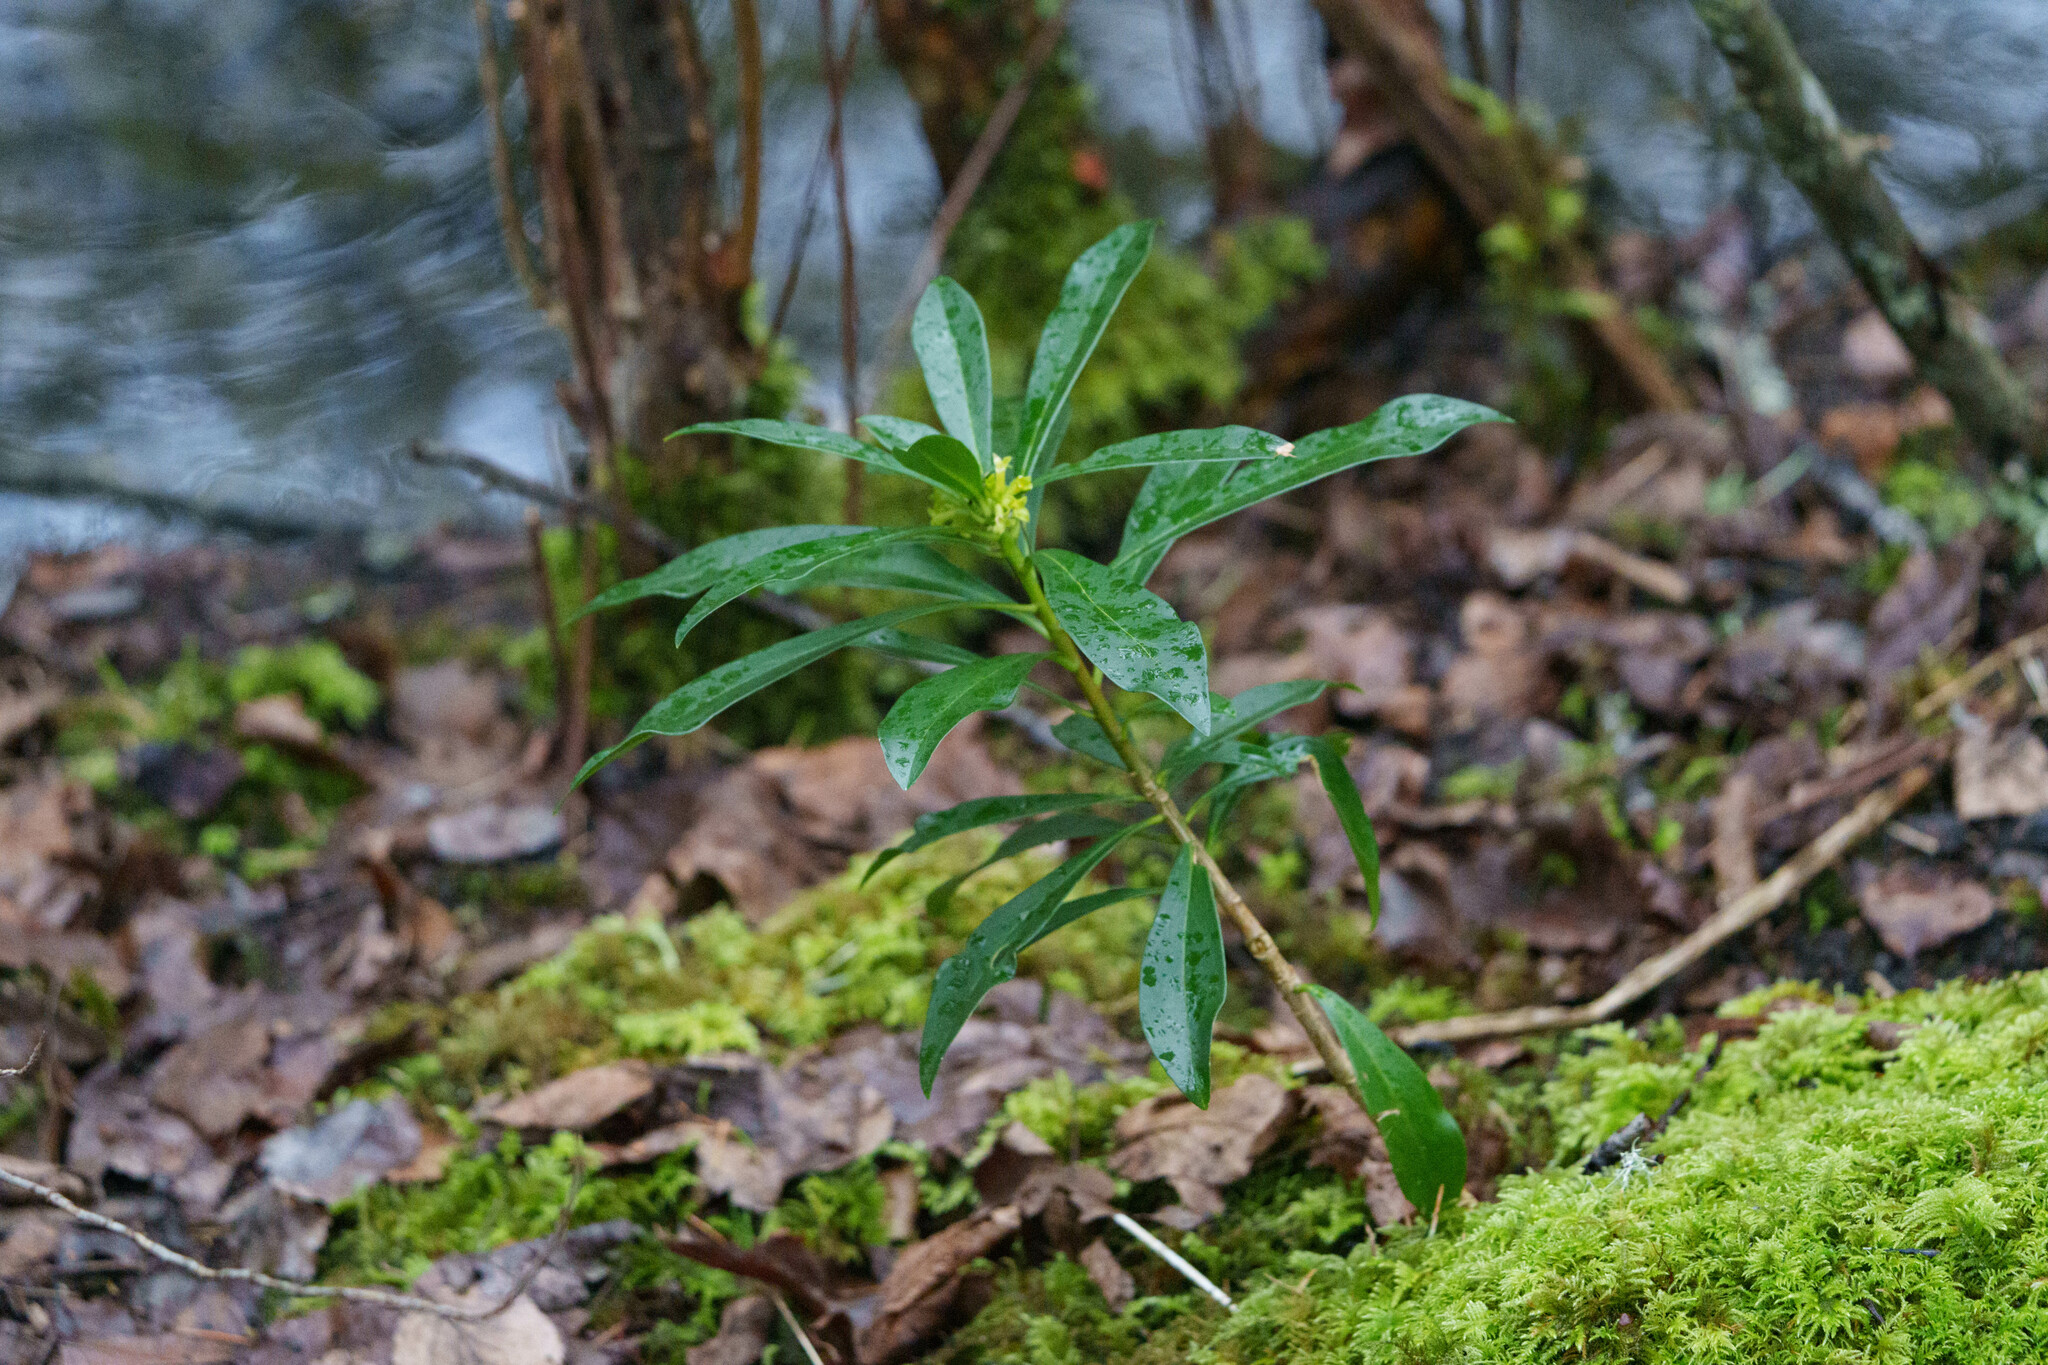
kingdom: Plantae
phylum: Tracheophyta
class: Magnoliopsida
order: Malvales
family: Thymelaeaceae
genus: Daphne
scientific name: Daphne laureola
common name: Spurge-laurel
